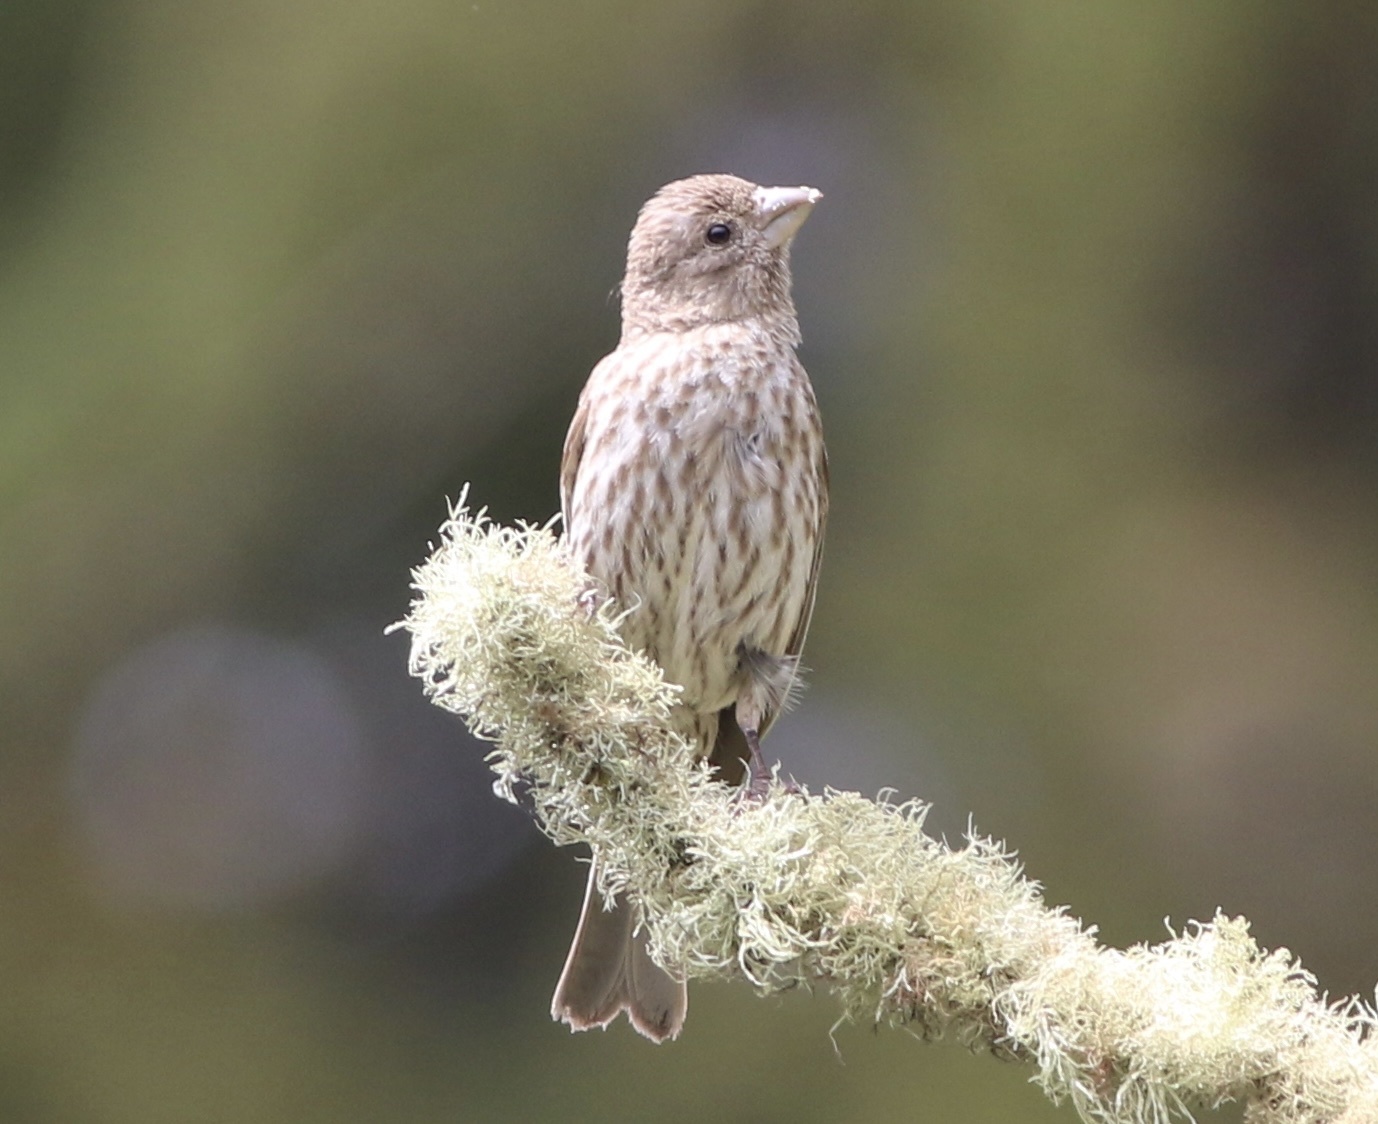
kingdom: Animalia
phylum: Chordata
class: Aves
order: Passeriformes
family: Fringillidae
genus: Haemorhous
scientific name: Haemorhous mexicanus
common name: House finch
